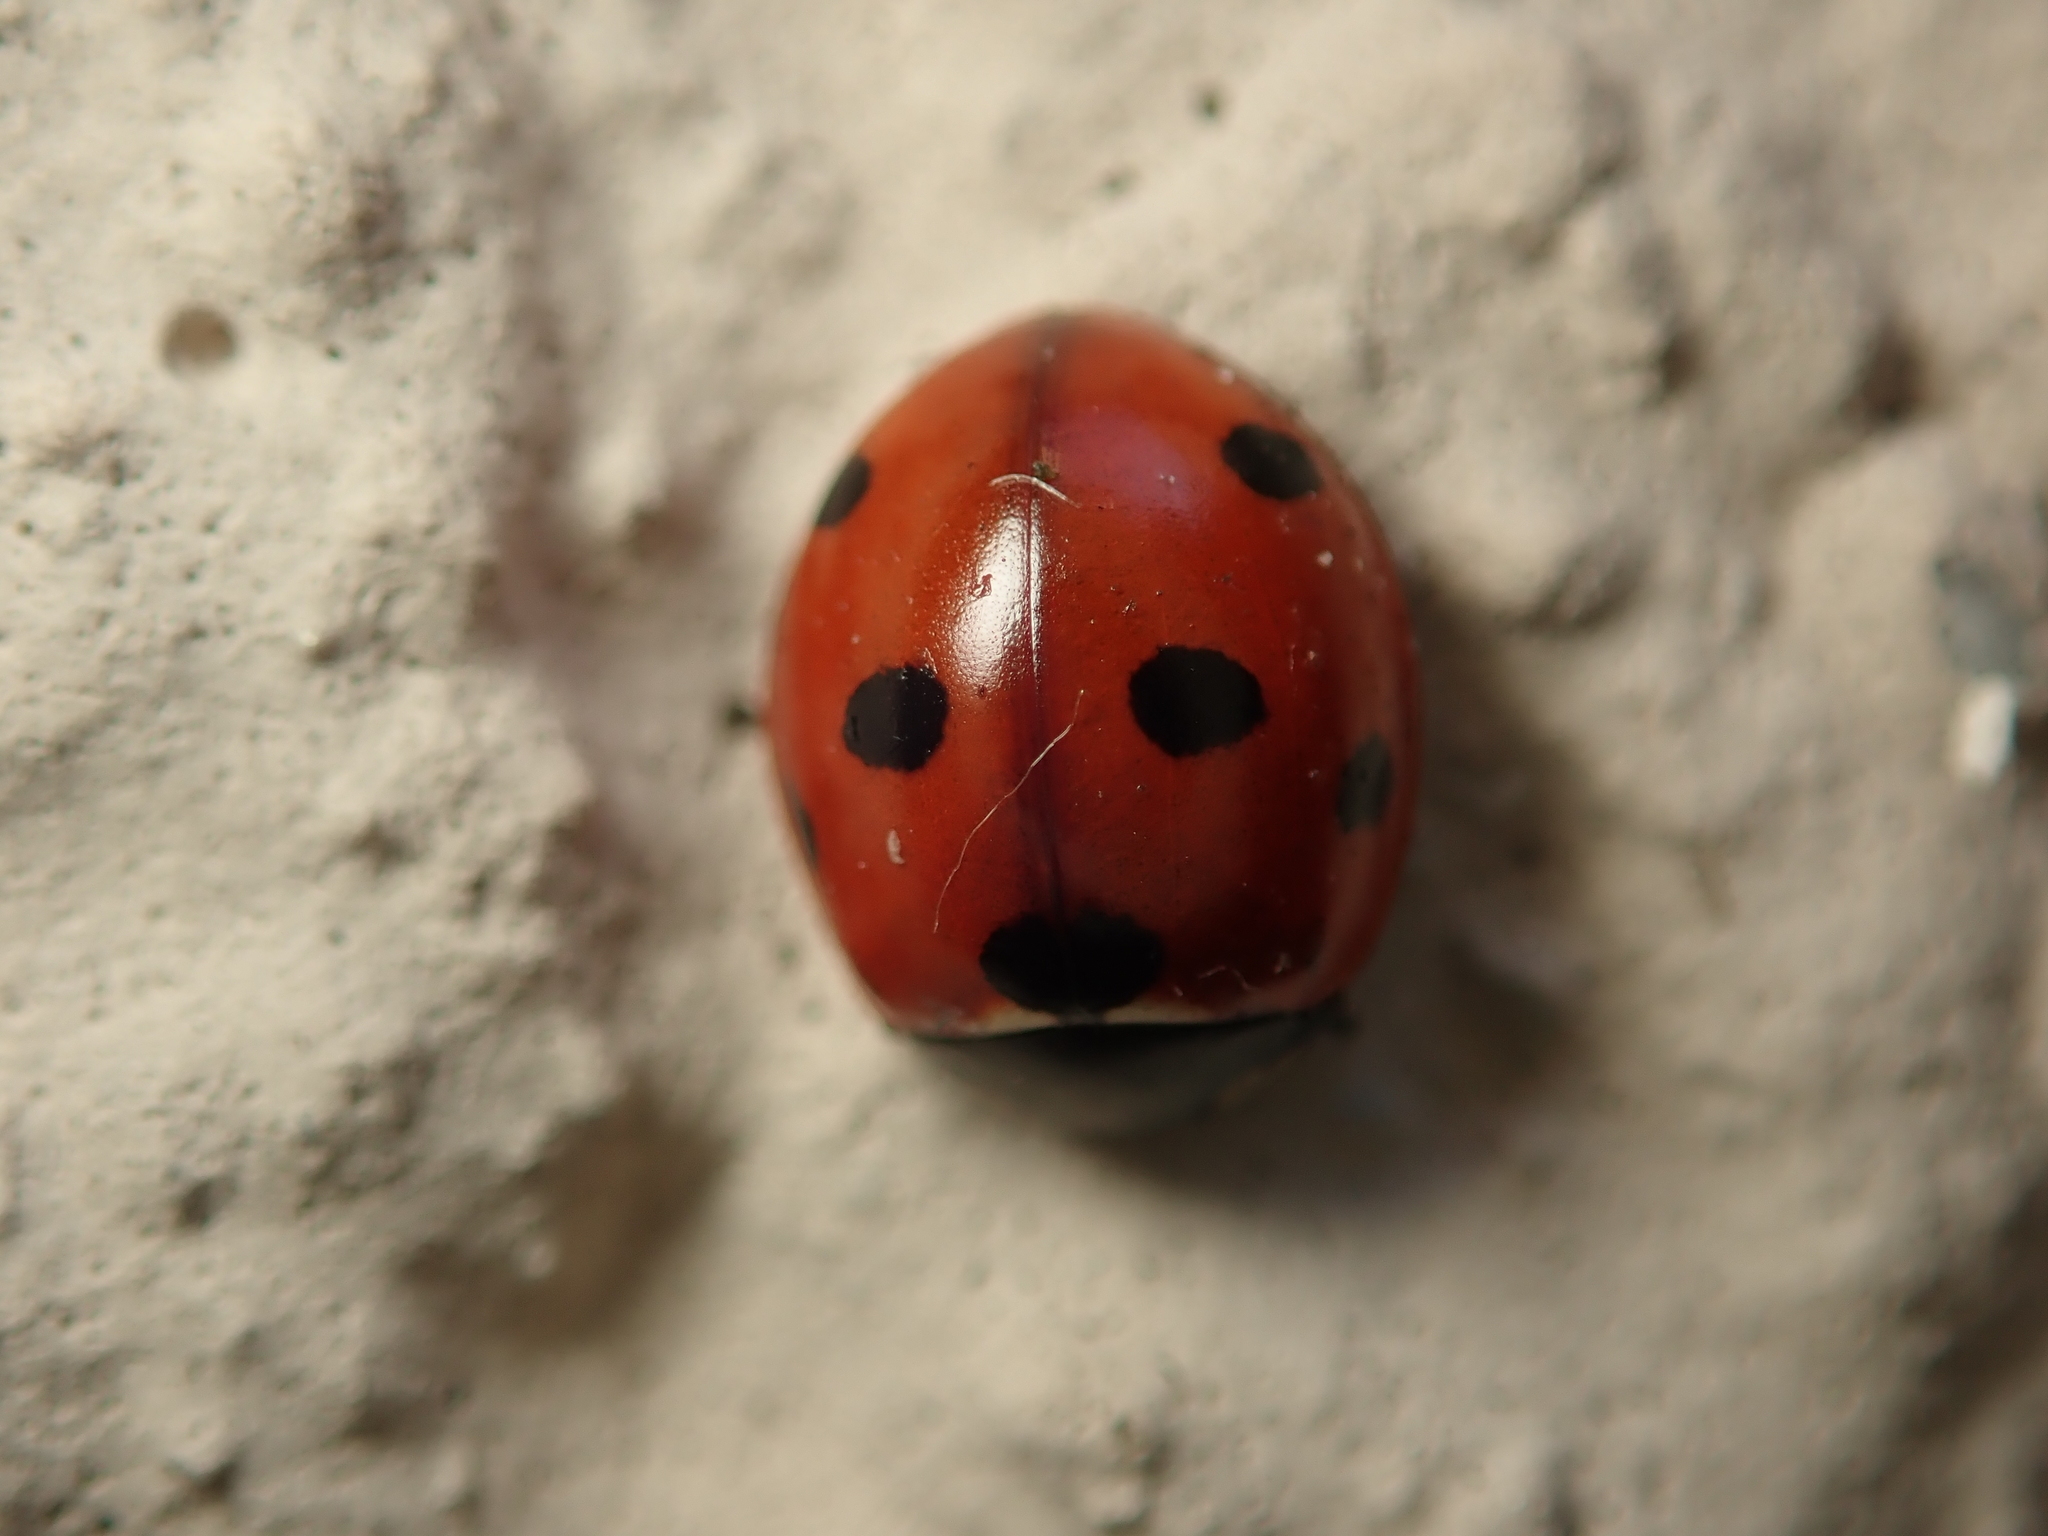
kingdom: Animalia
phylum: Arthropoda
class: Insecta
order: Coleoptera
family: Coccinellidae
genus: Coccinella
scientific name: Coccinella septempunctata
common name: Sevenspotted lady beetle
